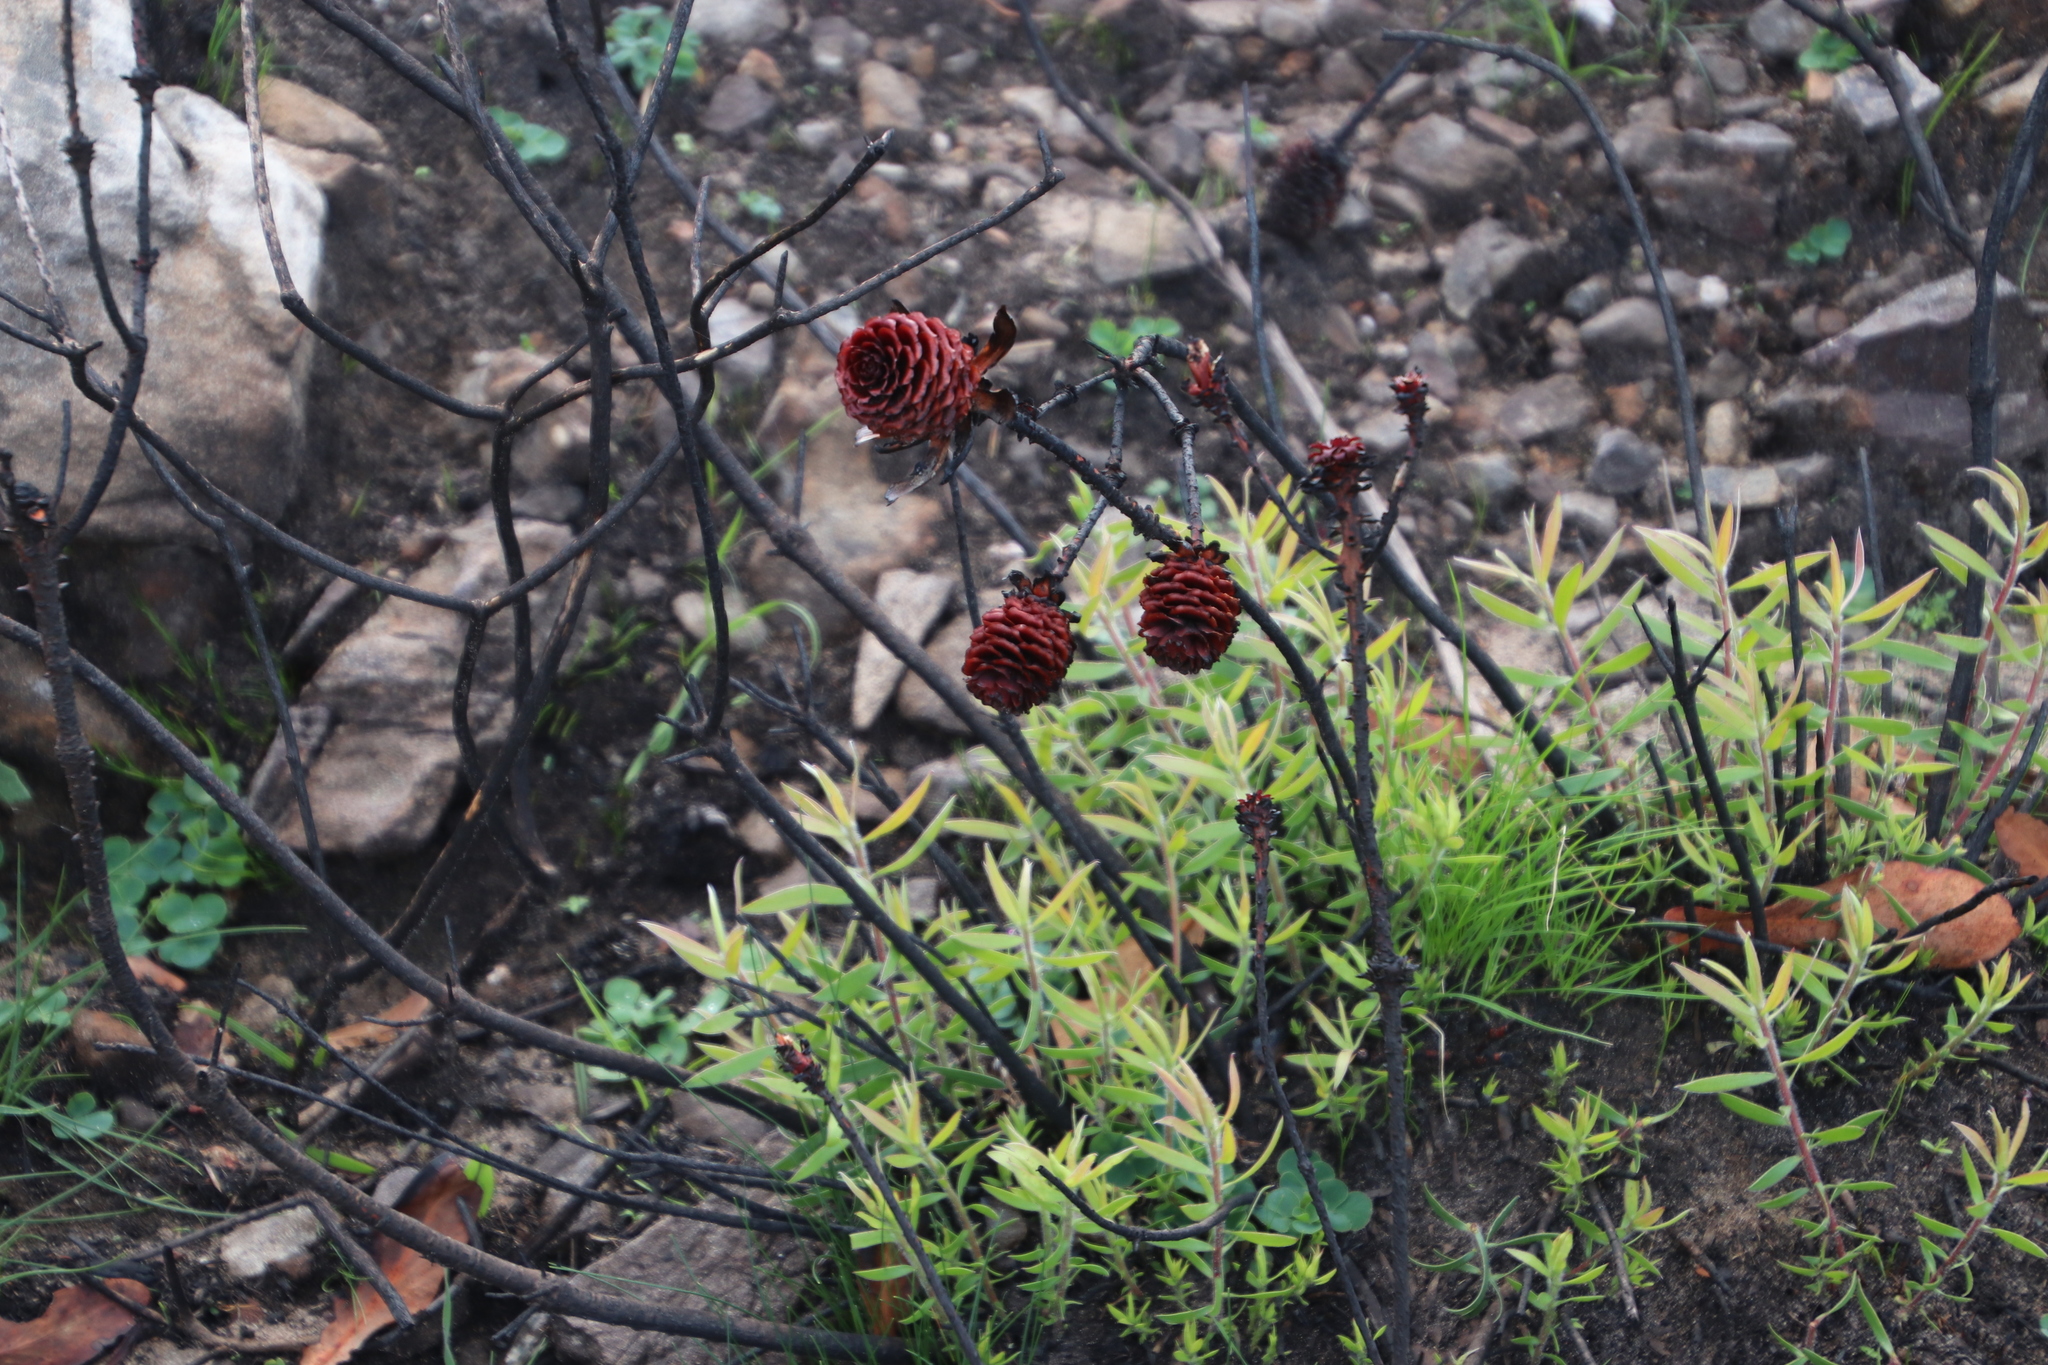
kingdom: Plantae
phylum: Tracheophyta
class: Magnoliopsida
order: Proteales
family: Proteaceae
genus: Leucadendron
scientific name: Leucadendron spissifolium
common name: Spear-leaf conebush
